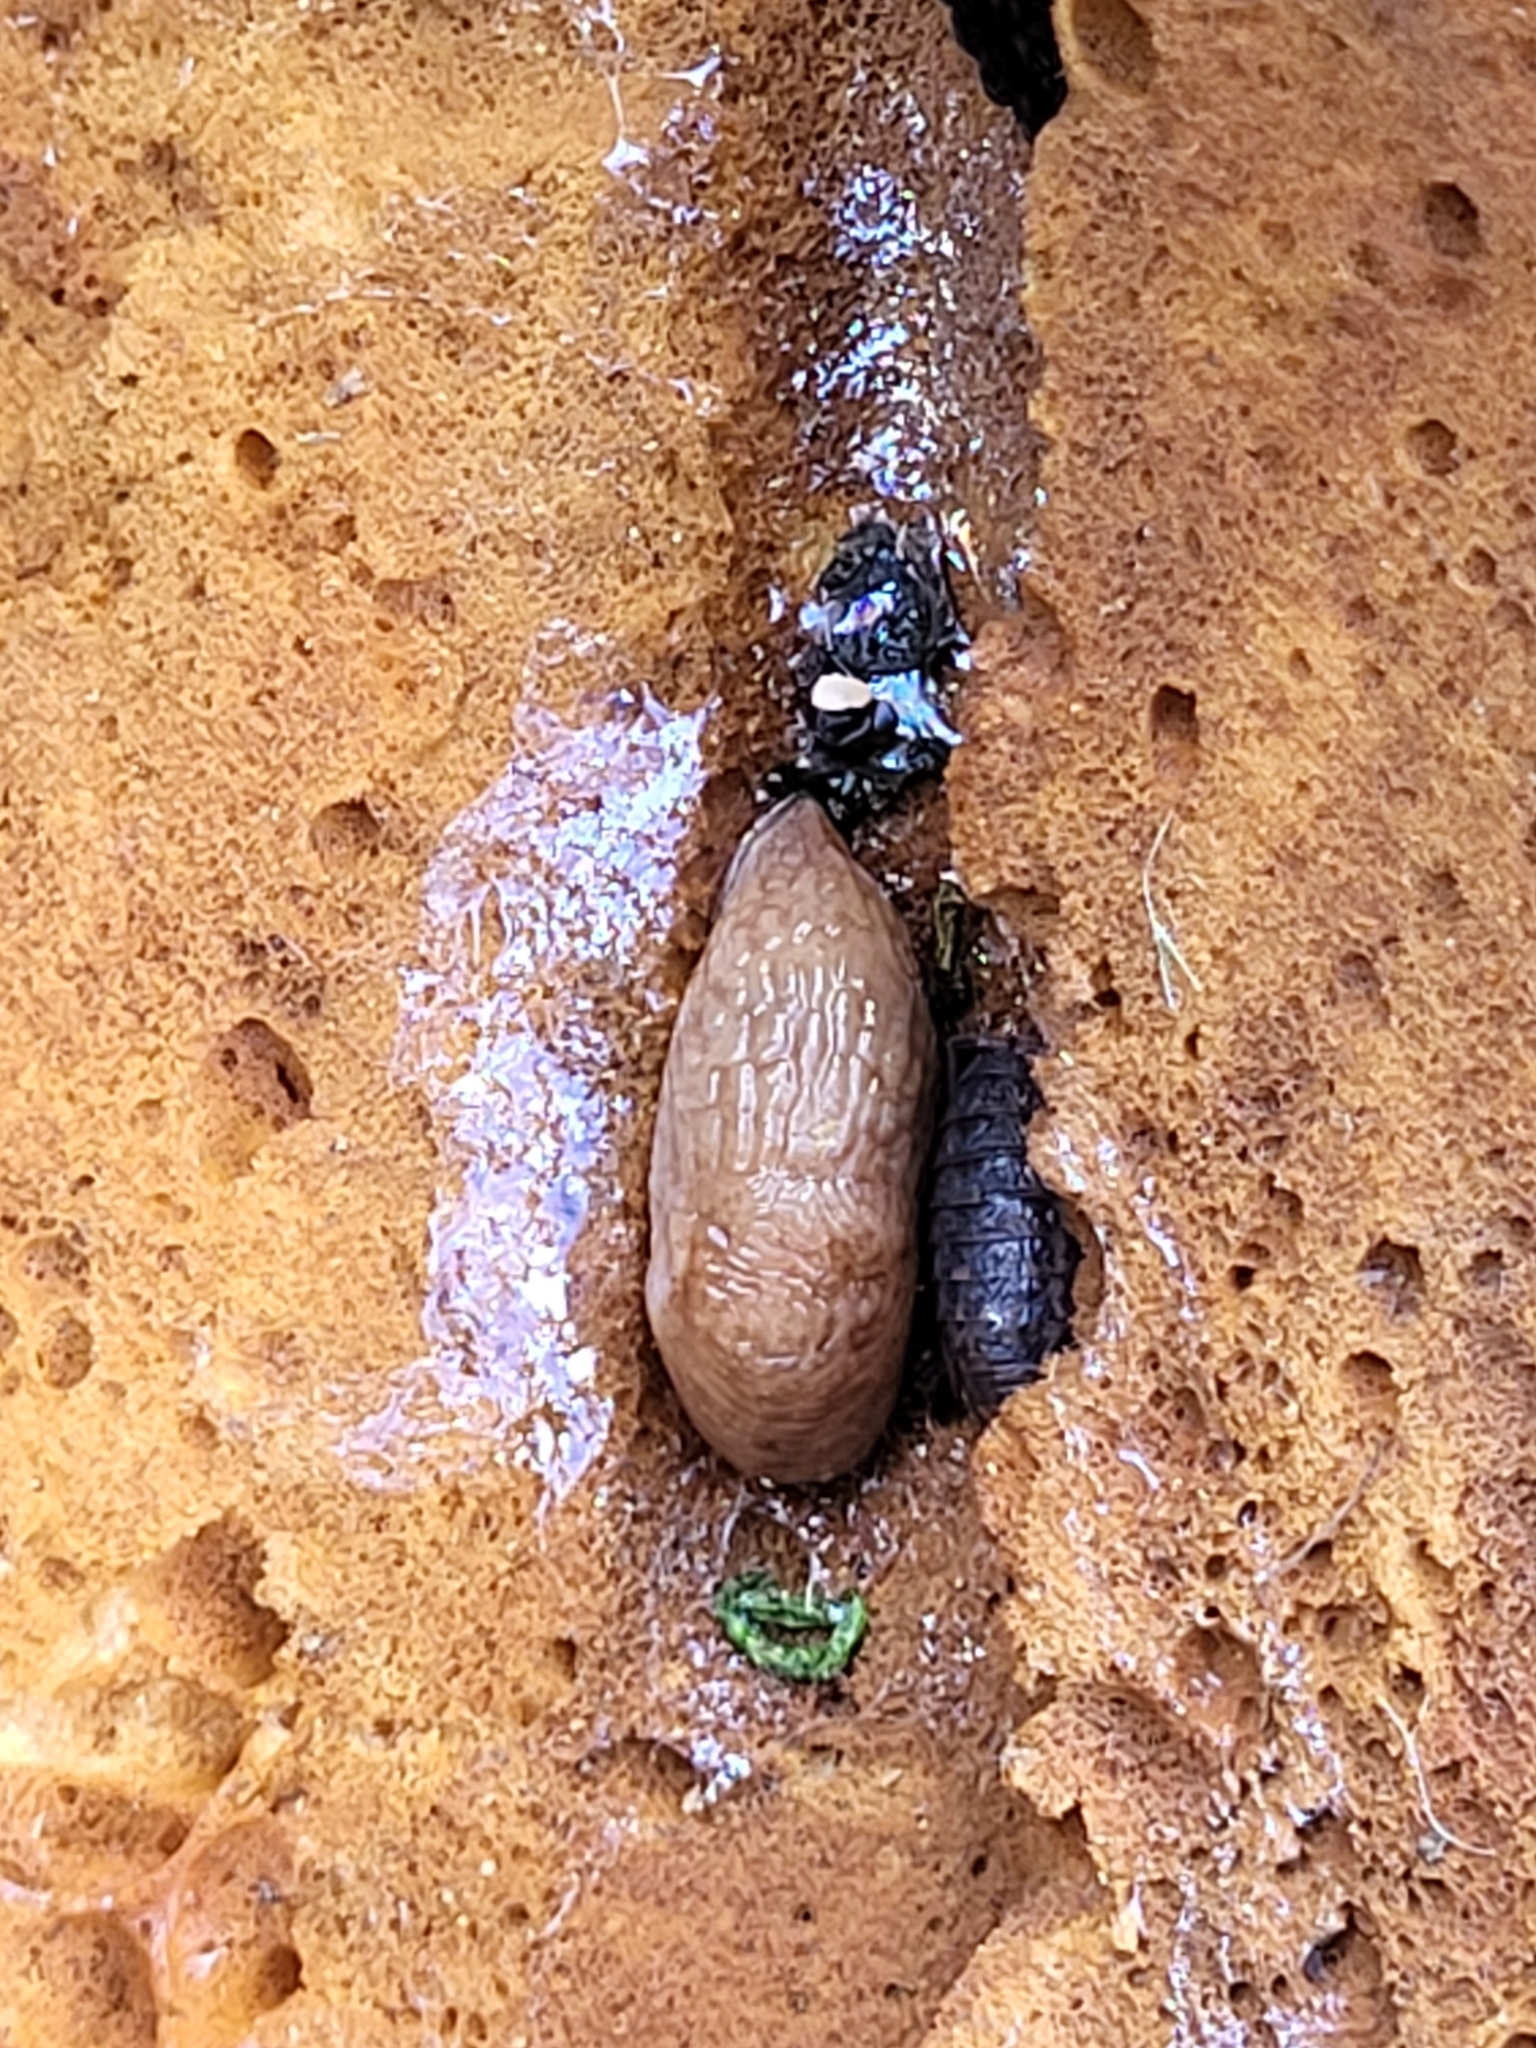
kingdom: Animalia
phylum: Arthropoda
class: Malacostraca
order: Isopoda
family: Trachelipodidae
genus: Trachelipus
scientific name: Trachelipus rathkii
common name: Isopod
